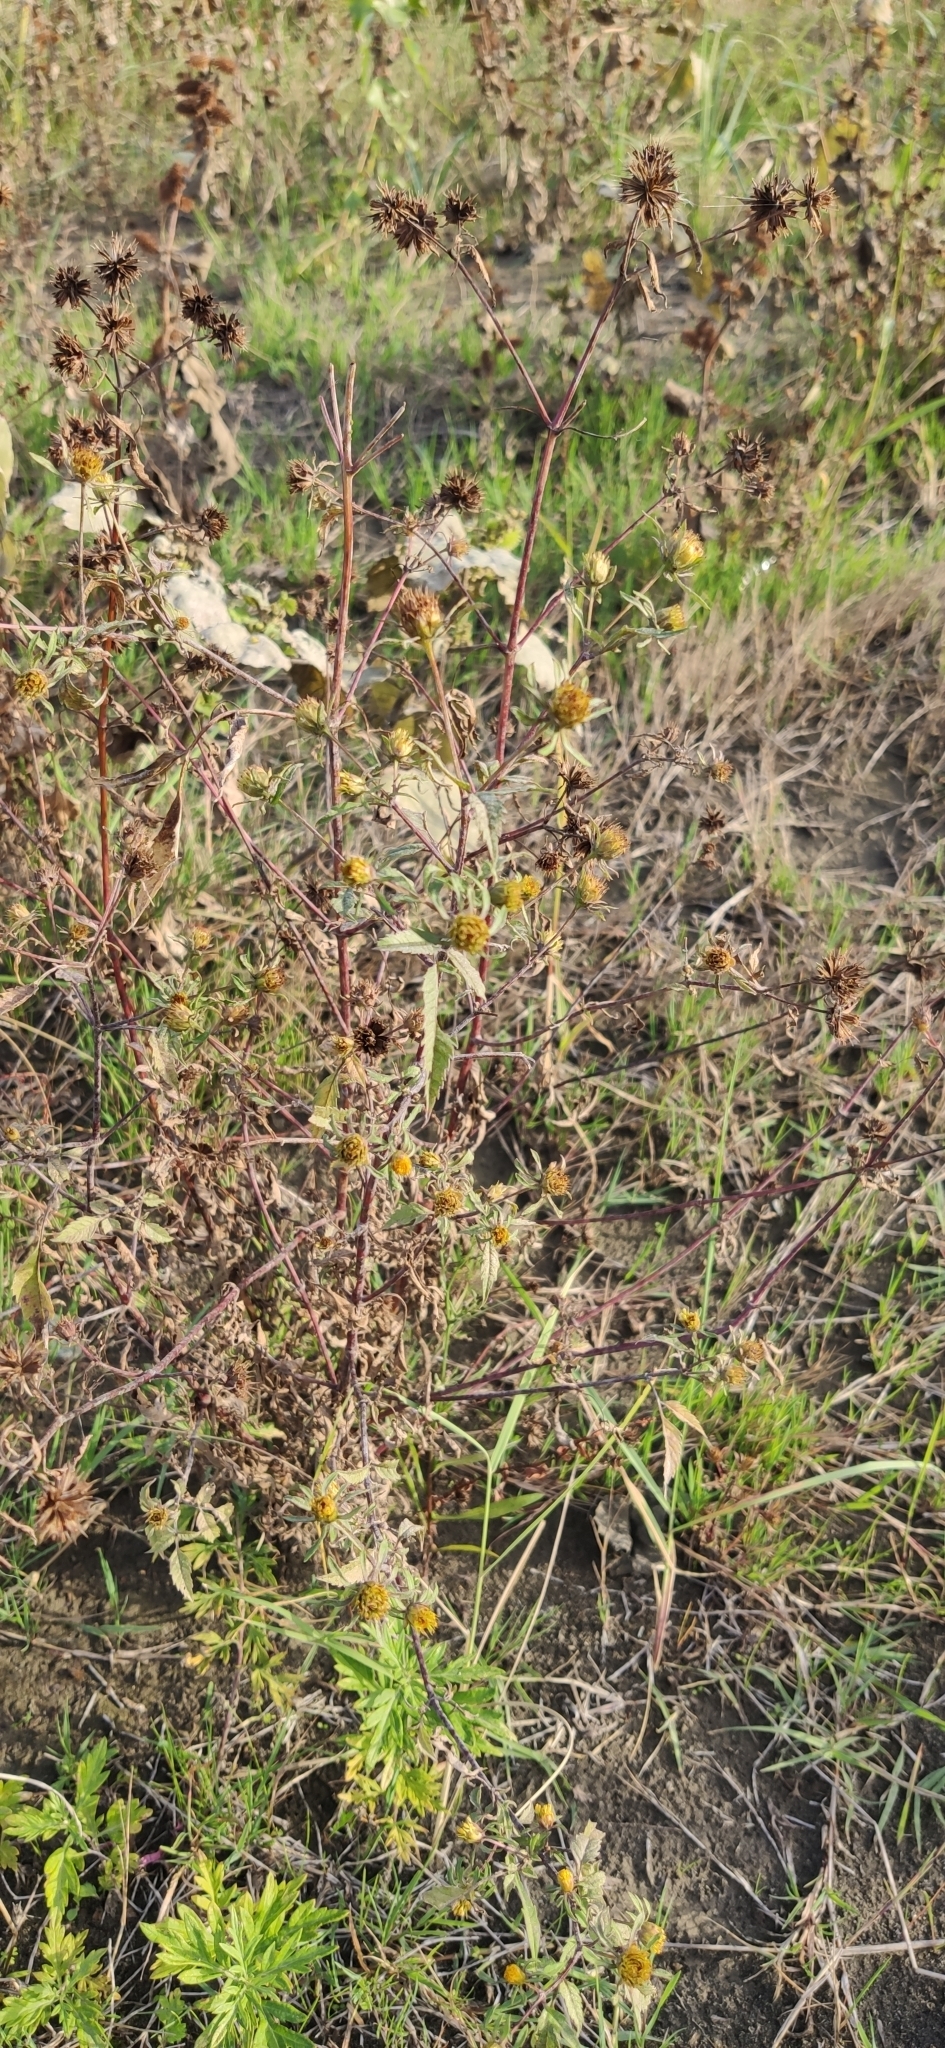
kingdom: Plantae
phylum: Tracheophyta
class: Magnoliopsida
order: Asterales
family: Asteraceae
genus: Bidens
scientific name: Bidens frondosa
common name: Beggarticks
